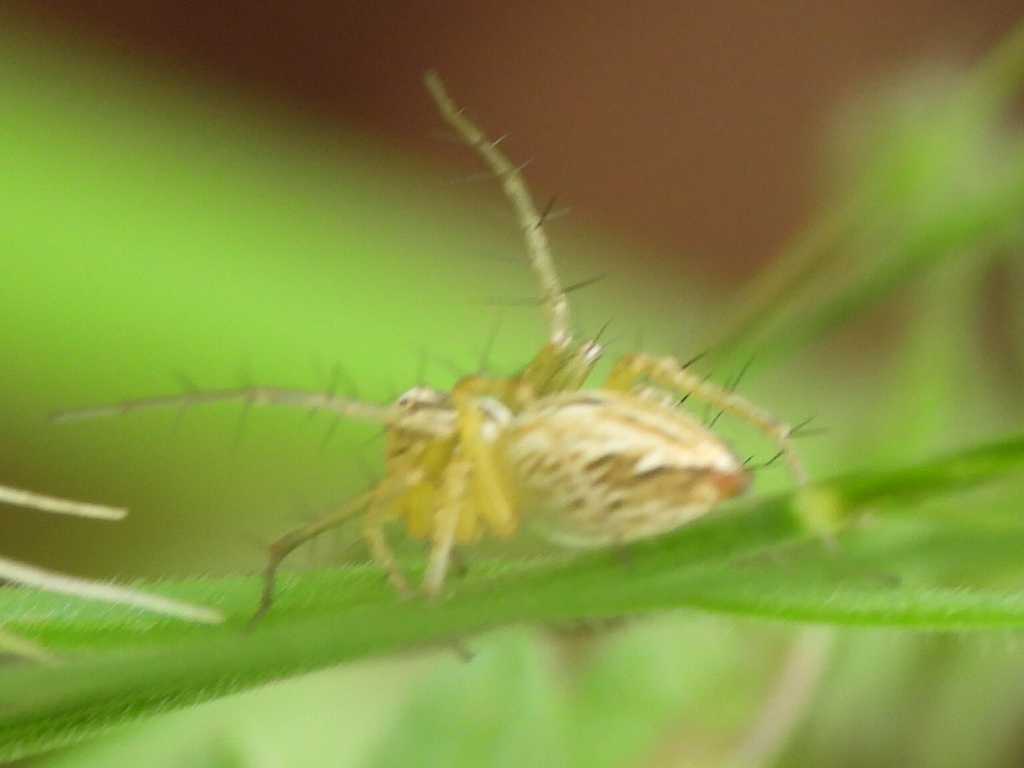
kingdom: Animalia
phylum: Arthropoda
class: Arachnida
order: Araneae
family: Oxyopidae
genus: Oxyopes
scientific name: Oxyopes salticus
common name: Lynx spiders
